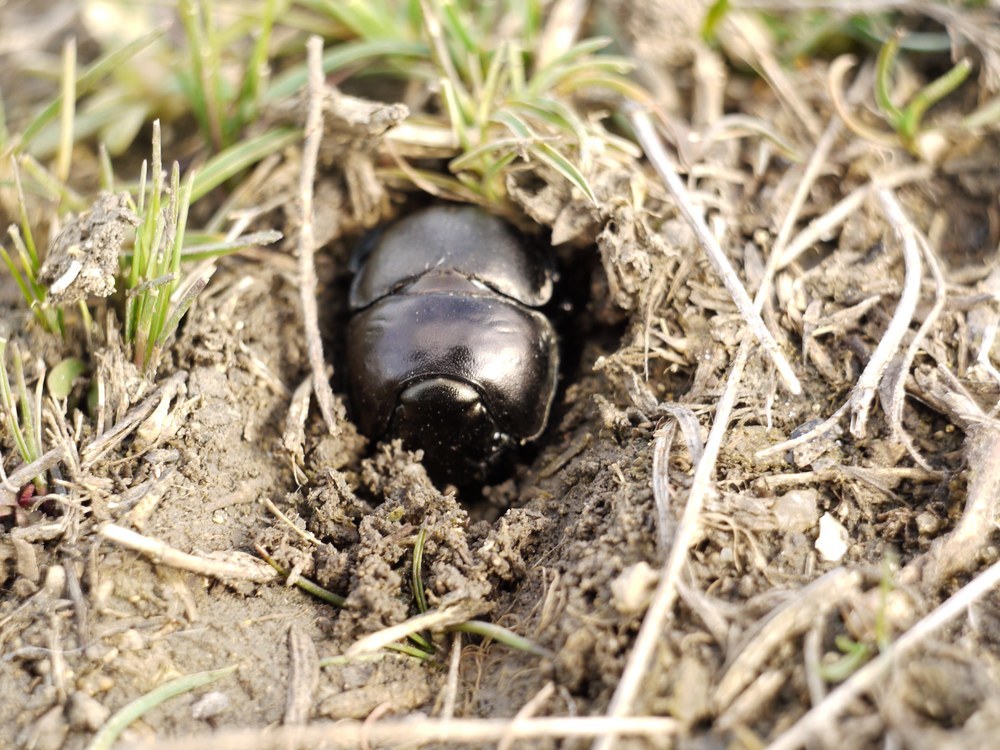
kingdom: Animalia
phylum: Arthropoda
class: Insecta
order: Coleoptera
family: Geotrupidae
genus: Lethrus
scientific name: Lethrus apterus
